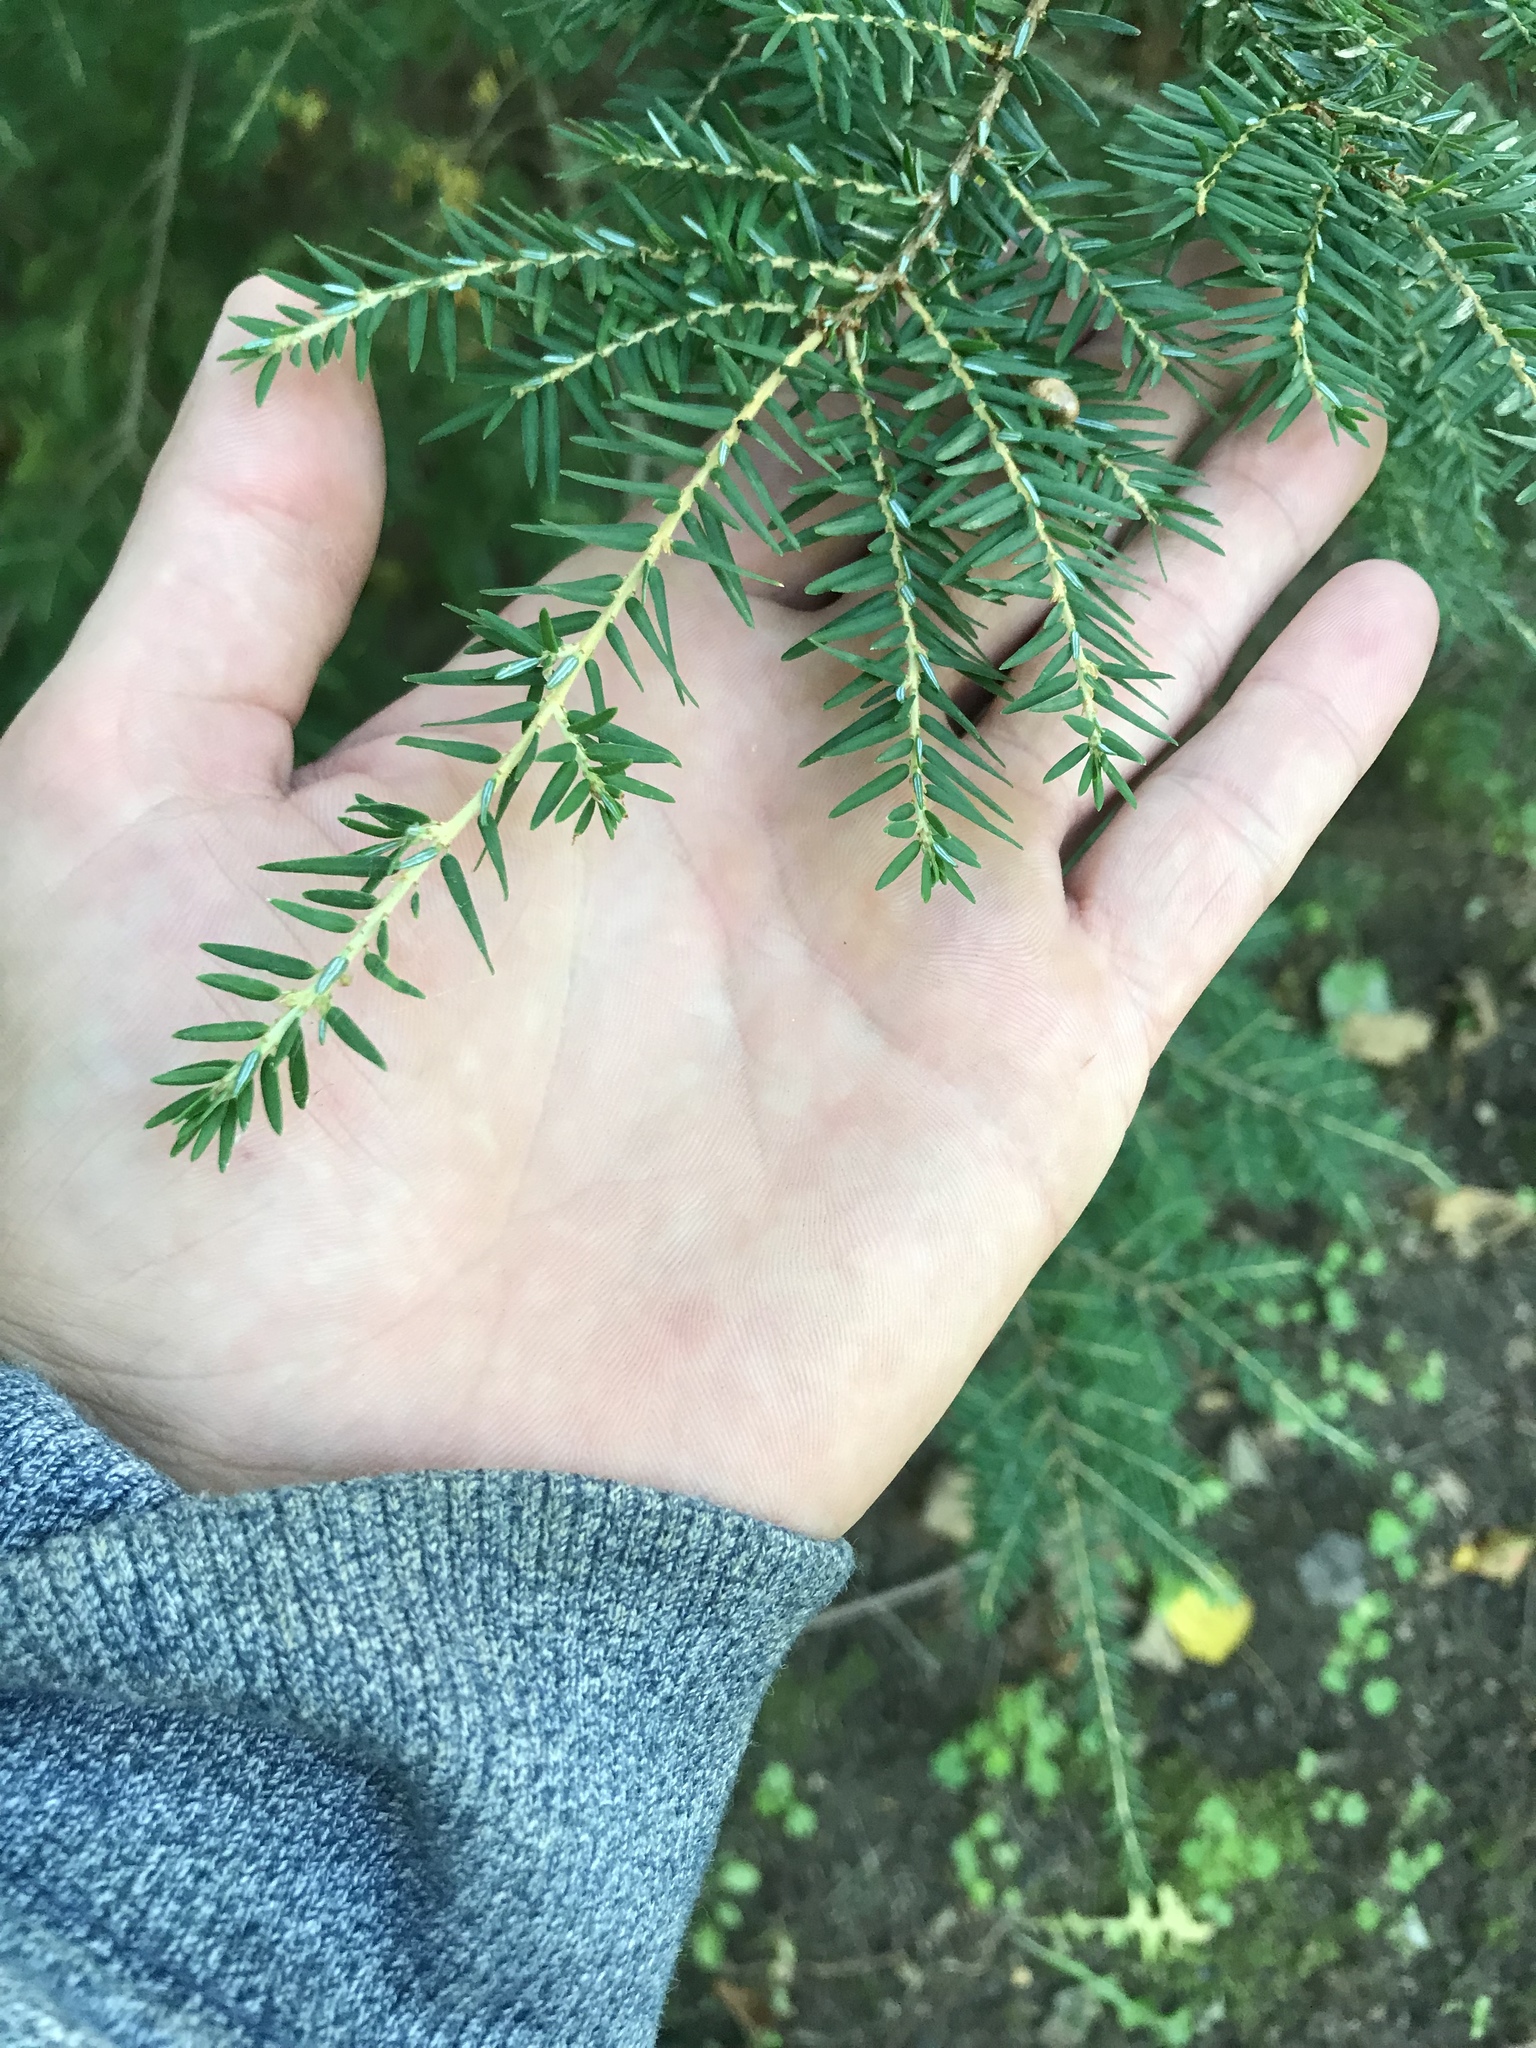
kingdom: Plantae
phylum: Tracheophyta
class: Pinopsida
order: Pinales
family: Pinaceae
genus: Tsuga
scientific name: Tsuga canadensis
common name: Eastern hemlock
